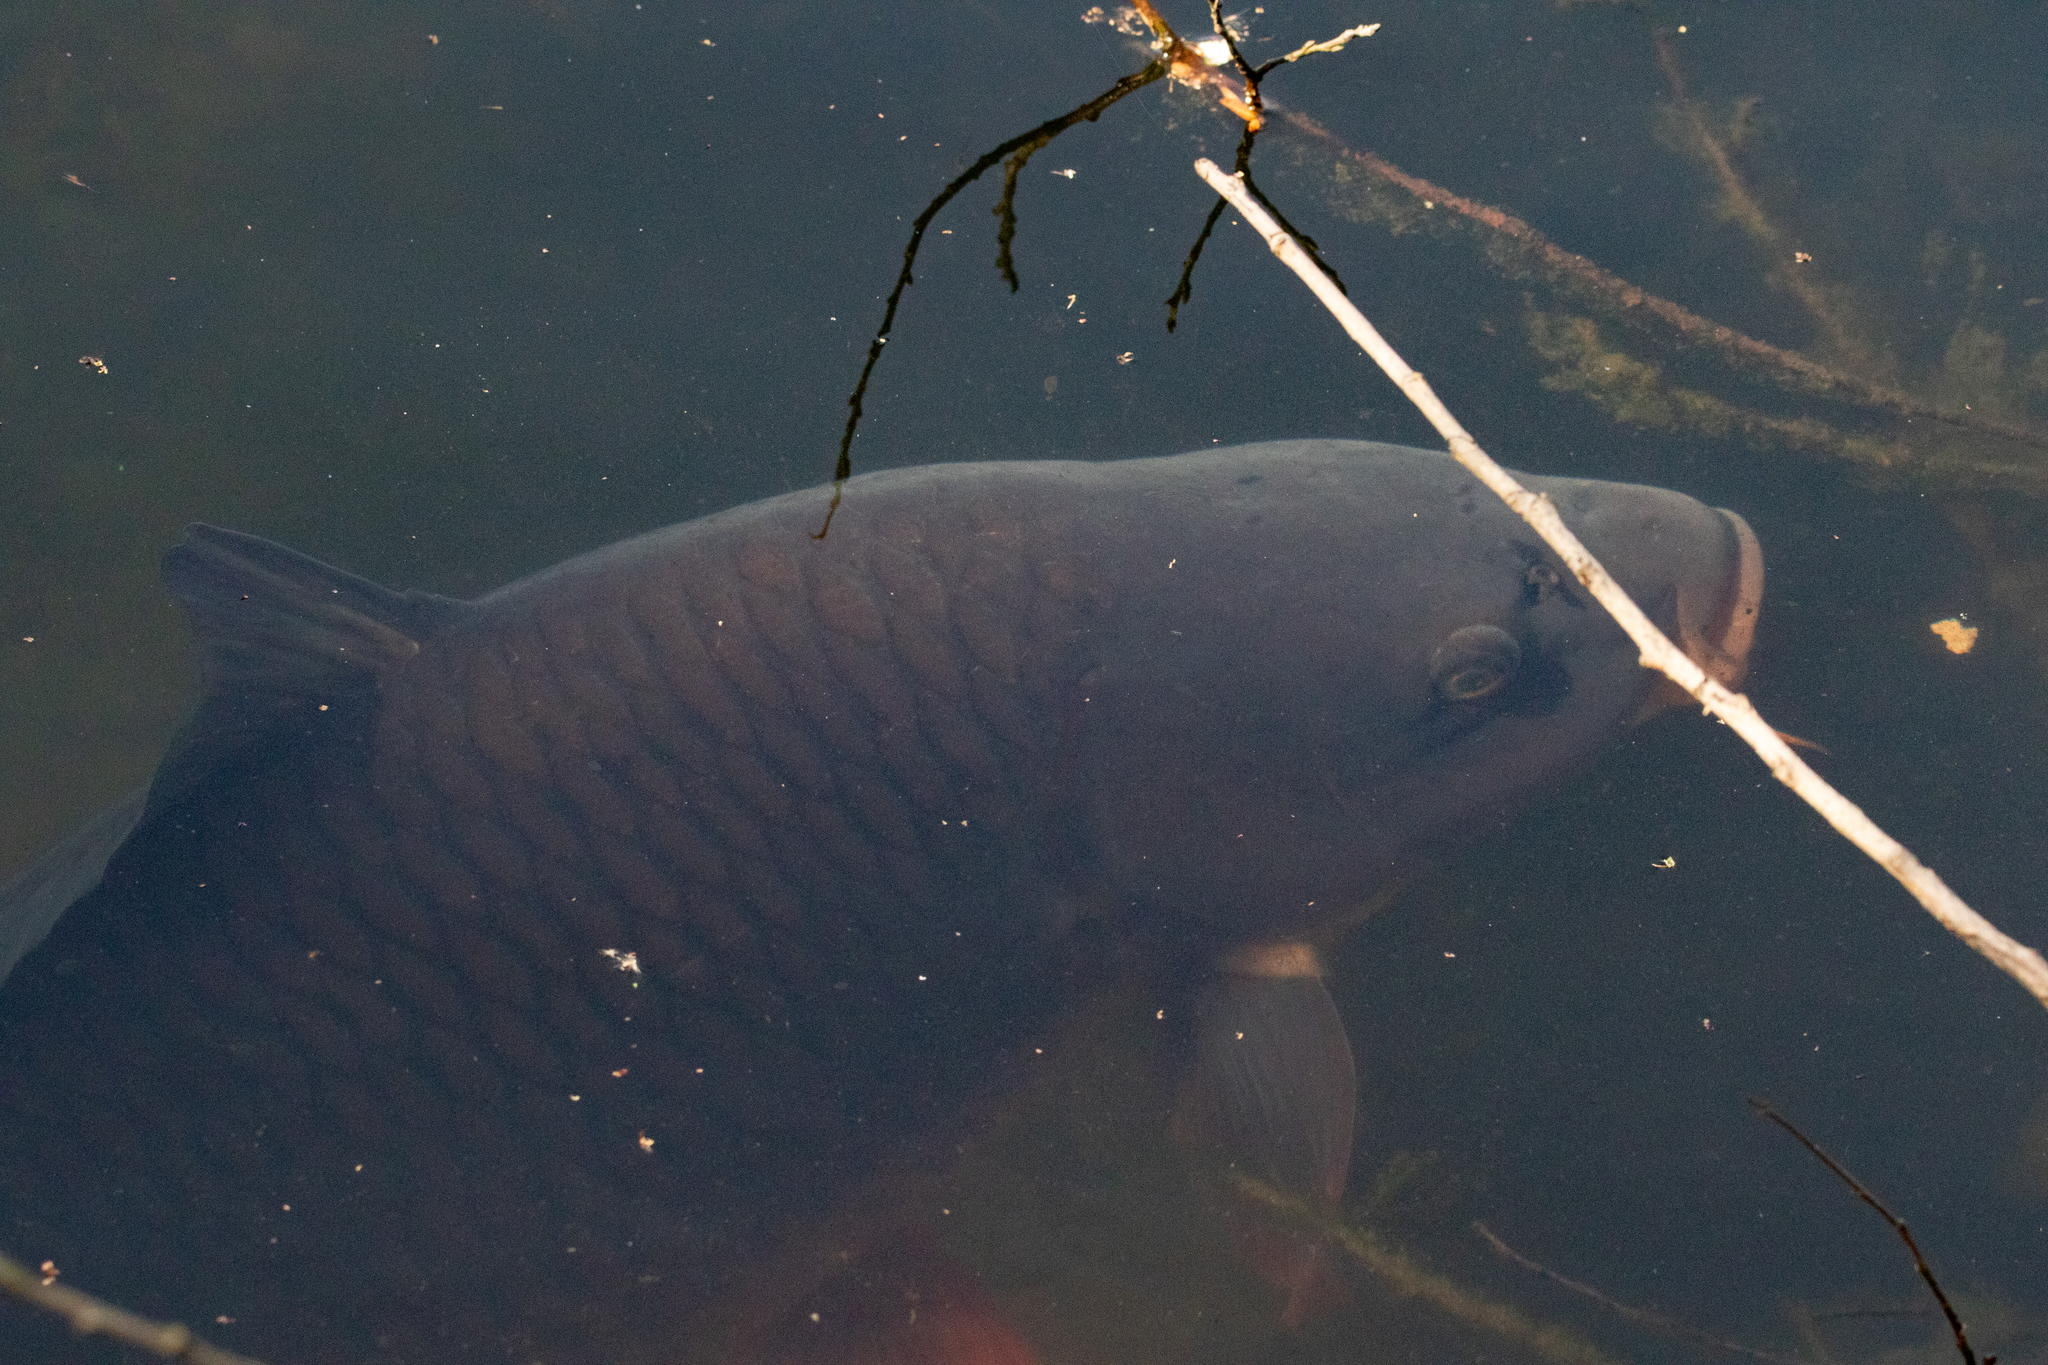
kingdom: Animalia
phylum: Chordata
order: Cypriniformes
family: Cyprinidae
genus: Cyprinus
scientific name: Cyprinus carpio
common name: Common carp
